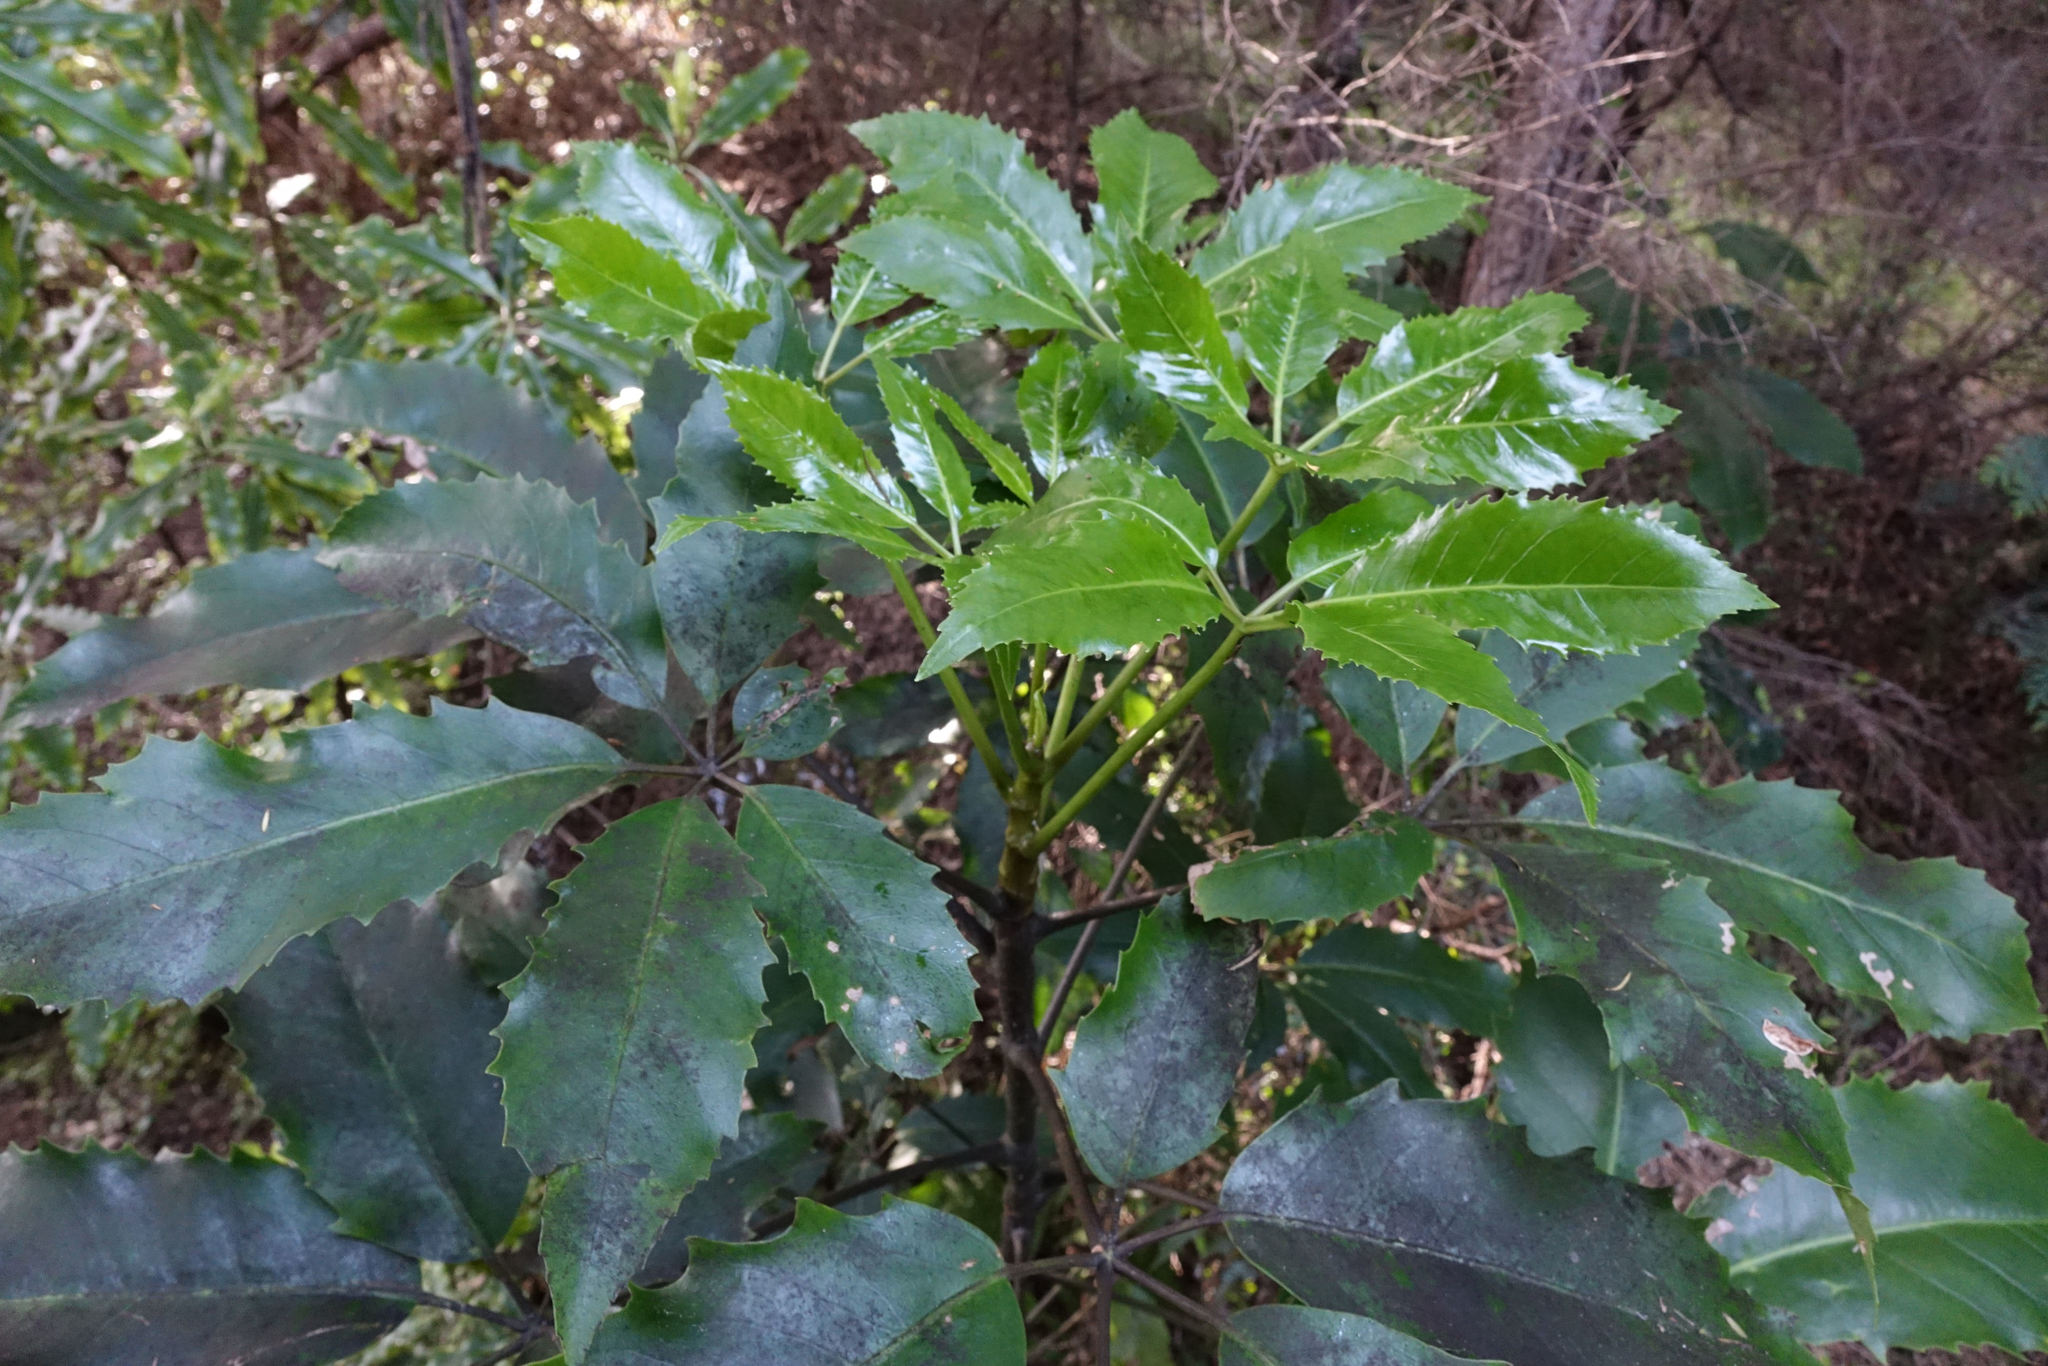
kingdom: Plantae
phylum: Tracheophyta
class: Magnoliopsida
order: Apiales
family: Araliaceae
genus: Neopanax
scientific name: Neopanax arboreus
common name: Five-fingers
